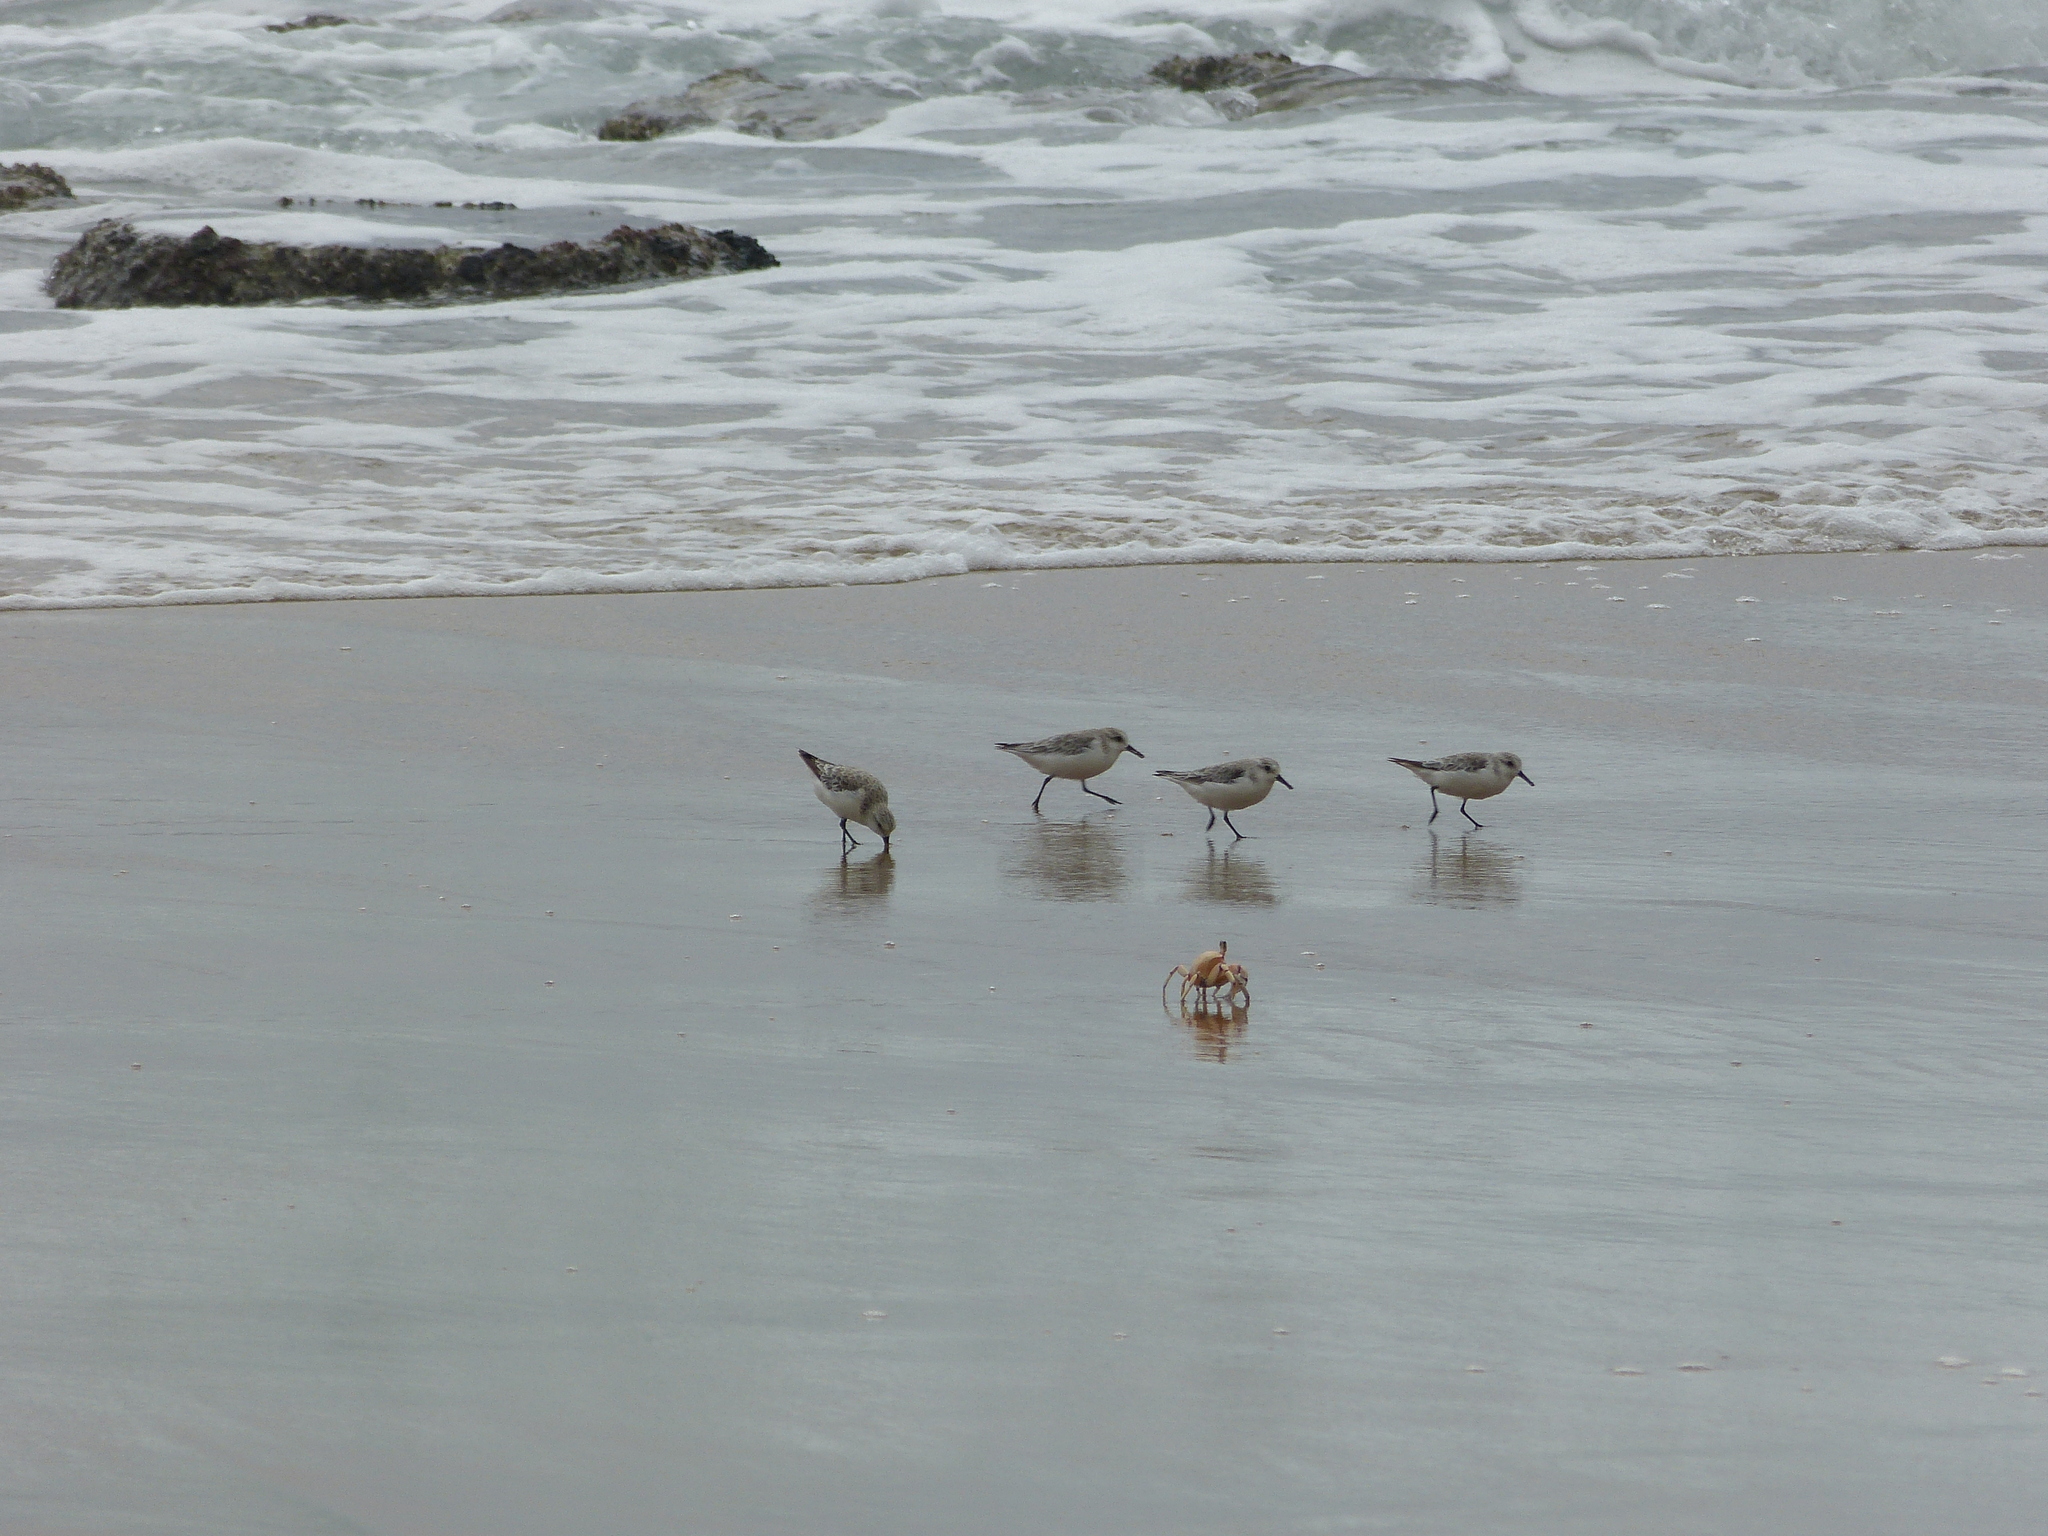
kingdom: Animalia
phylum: Chordata
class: Aves
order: Charadriiformes
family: Scolopacidae
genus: Calidris
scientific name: Calidris alba
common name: Sanderling
